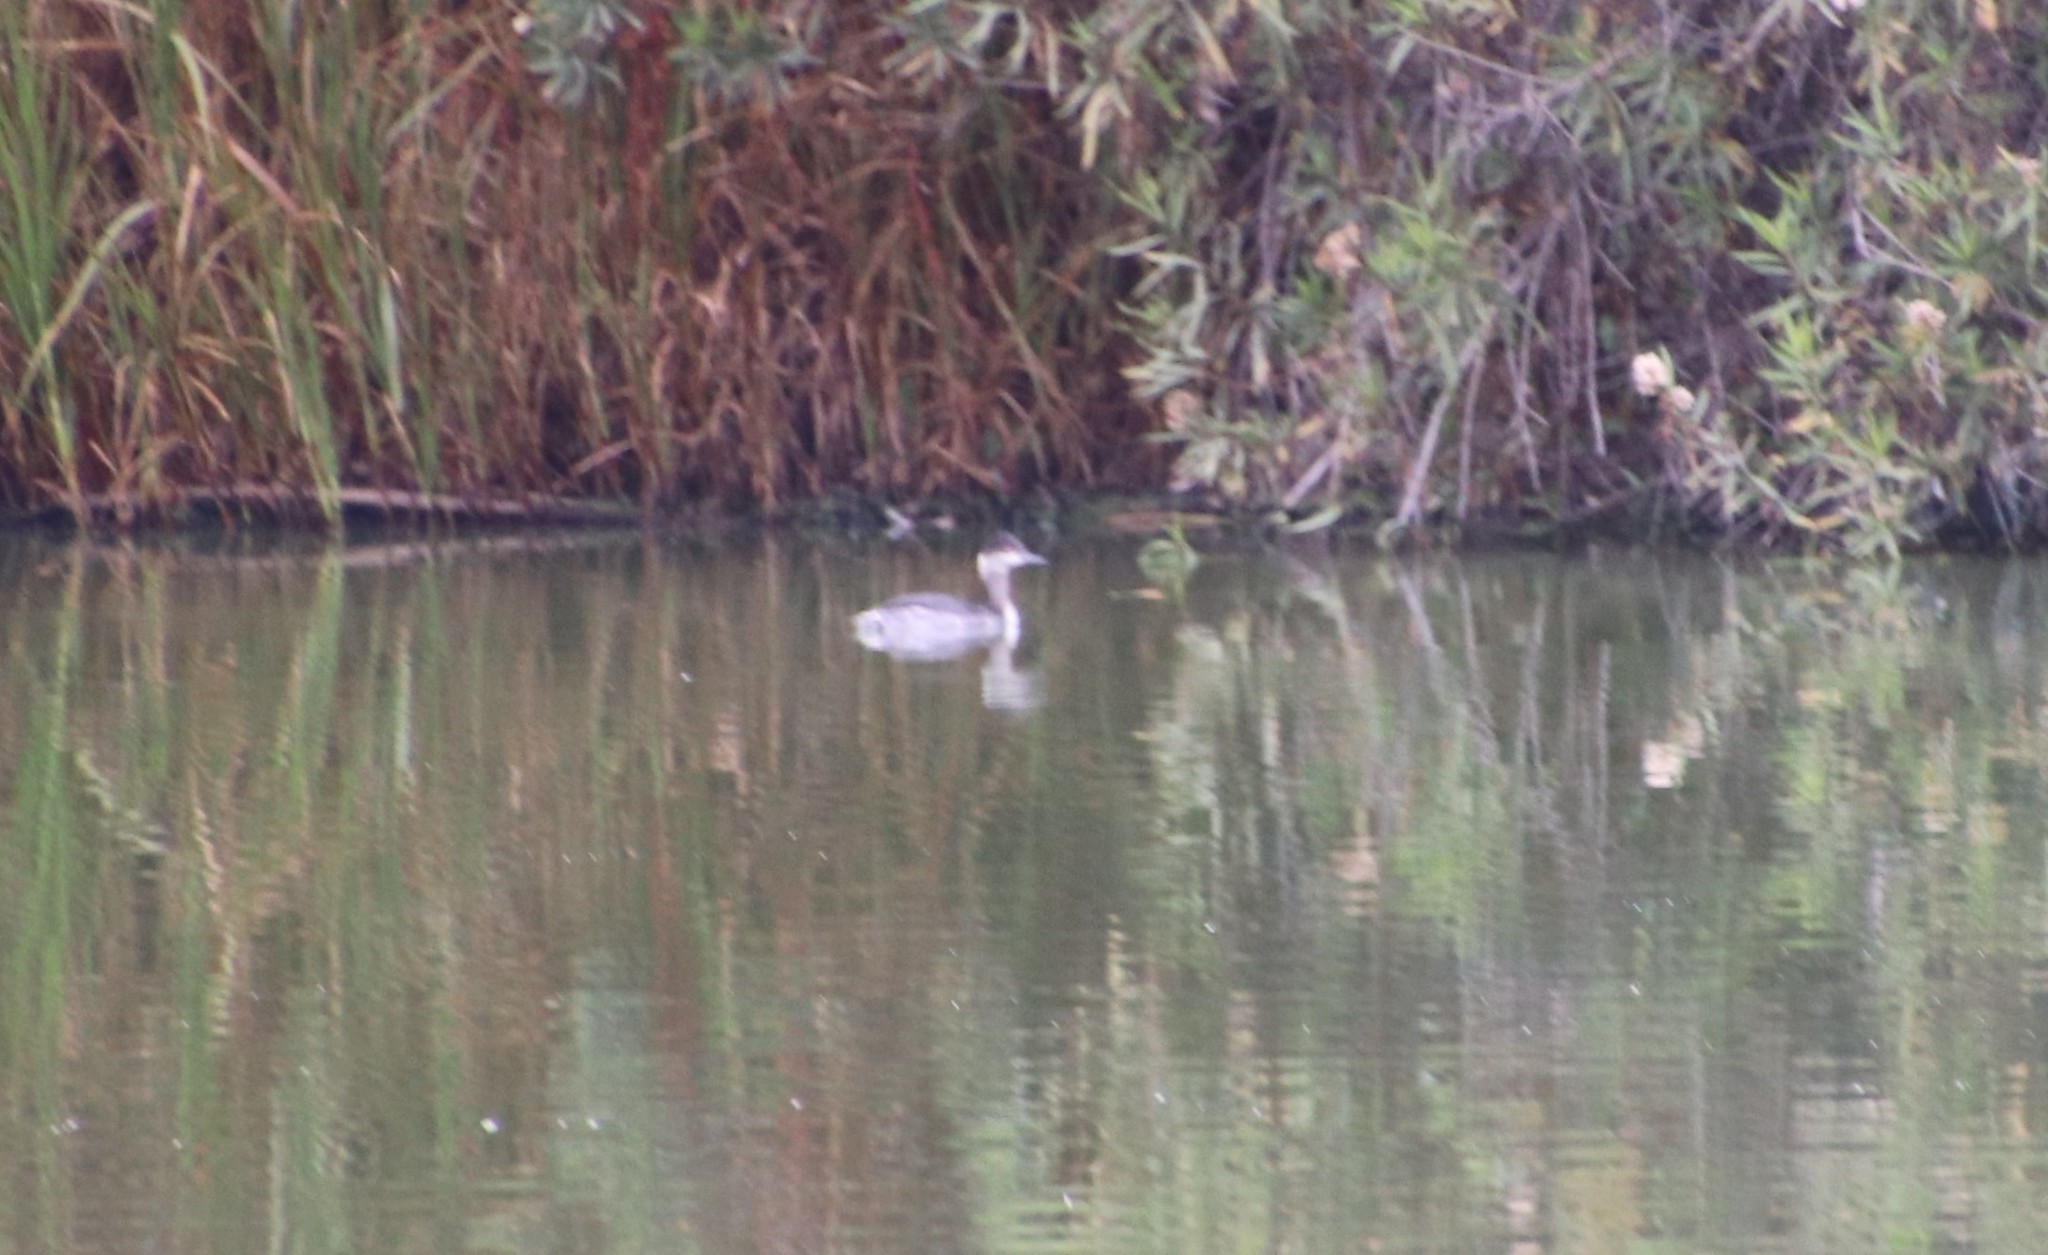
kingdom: Animalia
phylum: Chordata
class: Aves
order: Podicipediformes
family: Podicipedidae
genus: Podiceps
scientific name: Podiceps nigricollis
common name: Black-necked grebe
